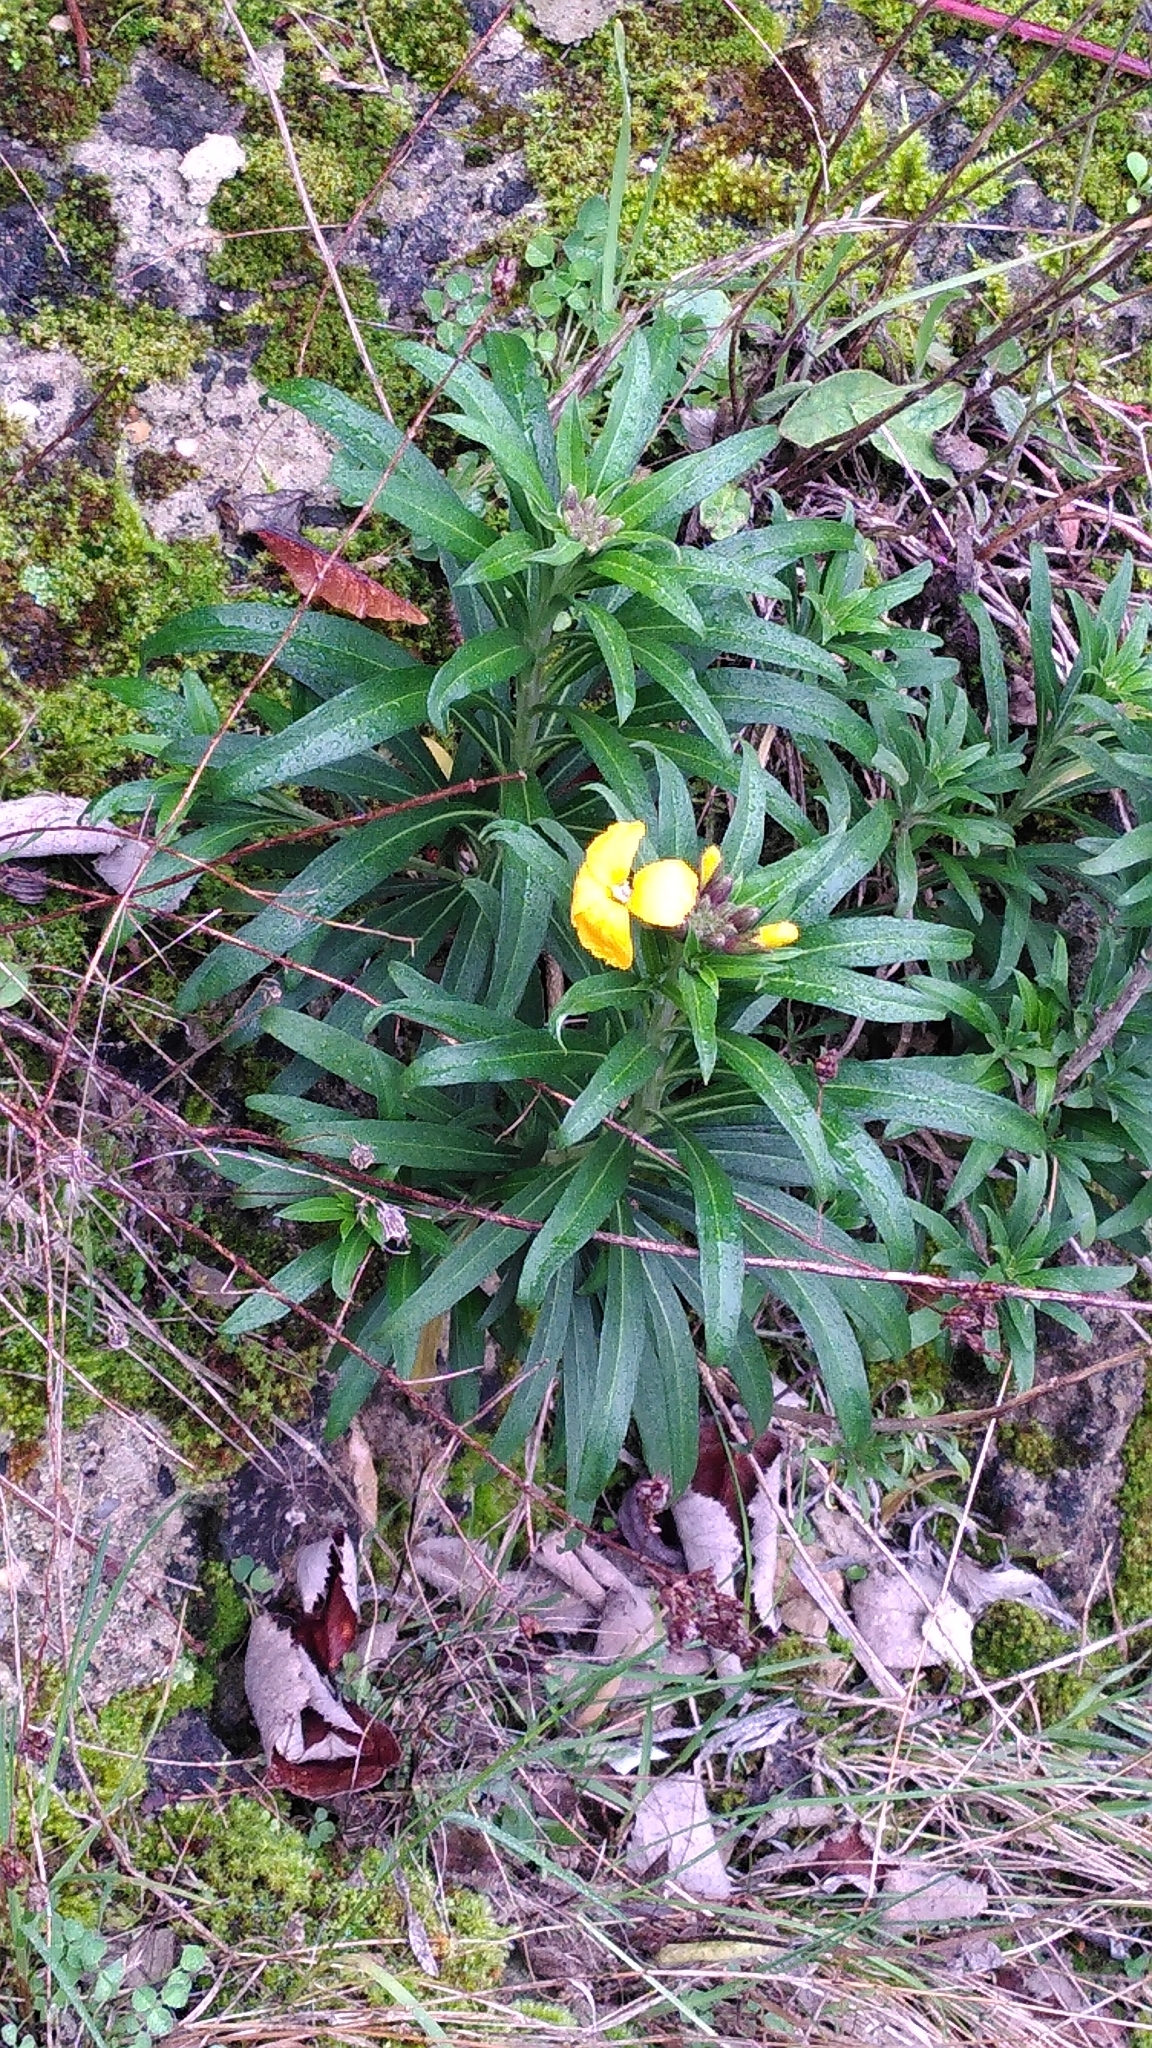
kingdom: Plantae
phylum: Tracheophyta
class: Magnoliopsida
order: Brassicales
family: Brassicaceae
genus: Erysimum
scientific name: Erysimum cheiri
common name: Wallflower
